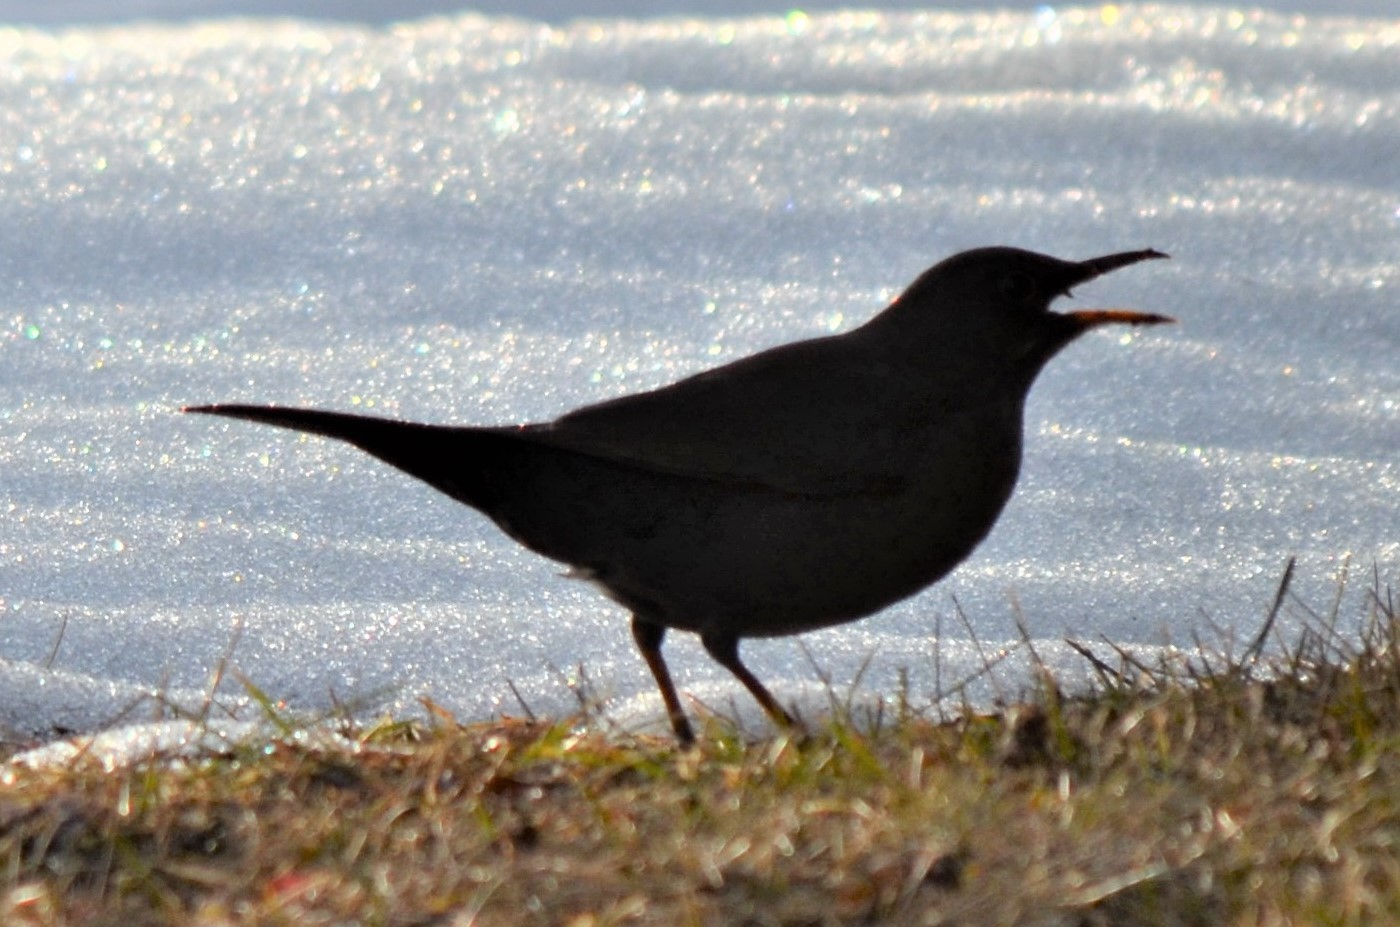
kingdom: Animalia
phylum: Chordata
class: Aves
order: Passeriformes
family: Turdidae
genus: Turdus
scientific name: Turdus merula
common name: Common blackbird
